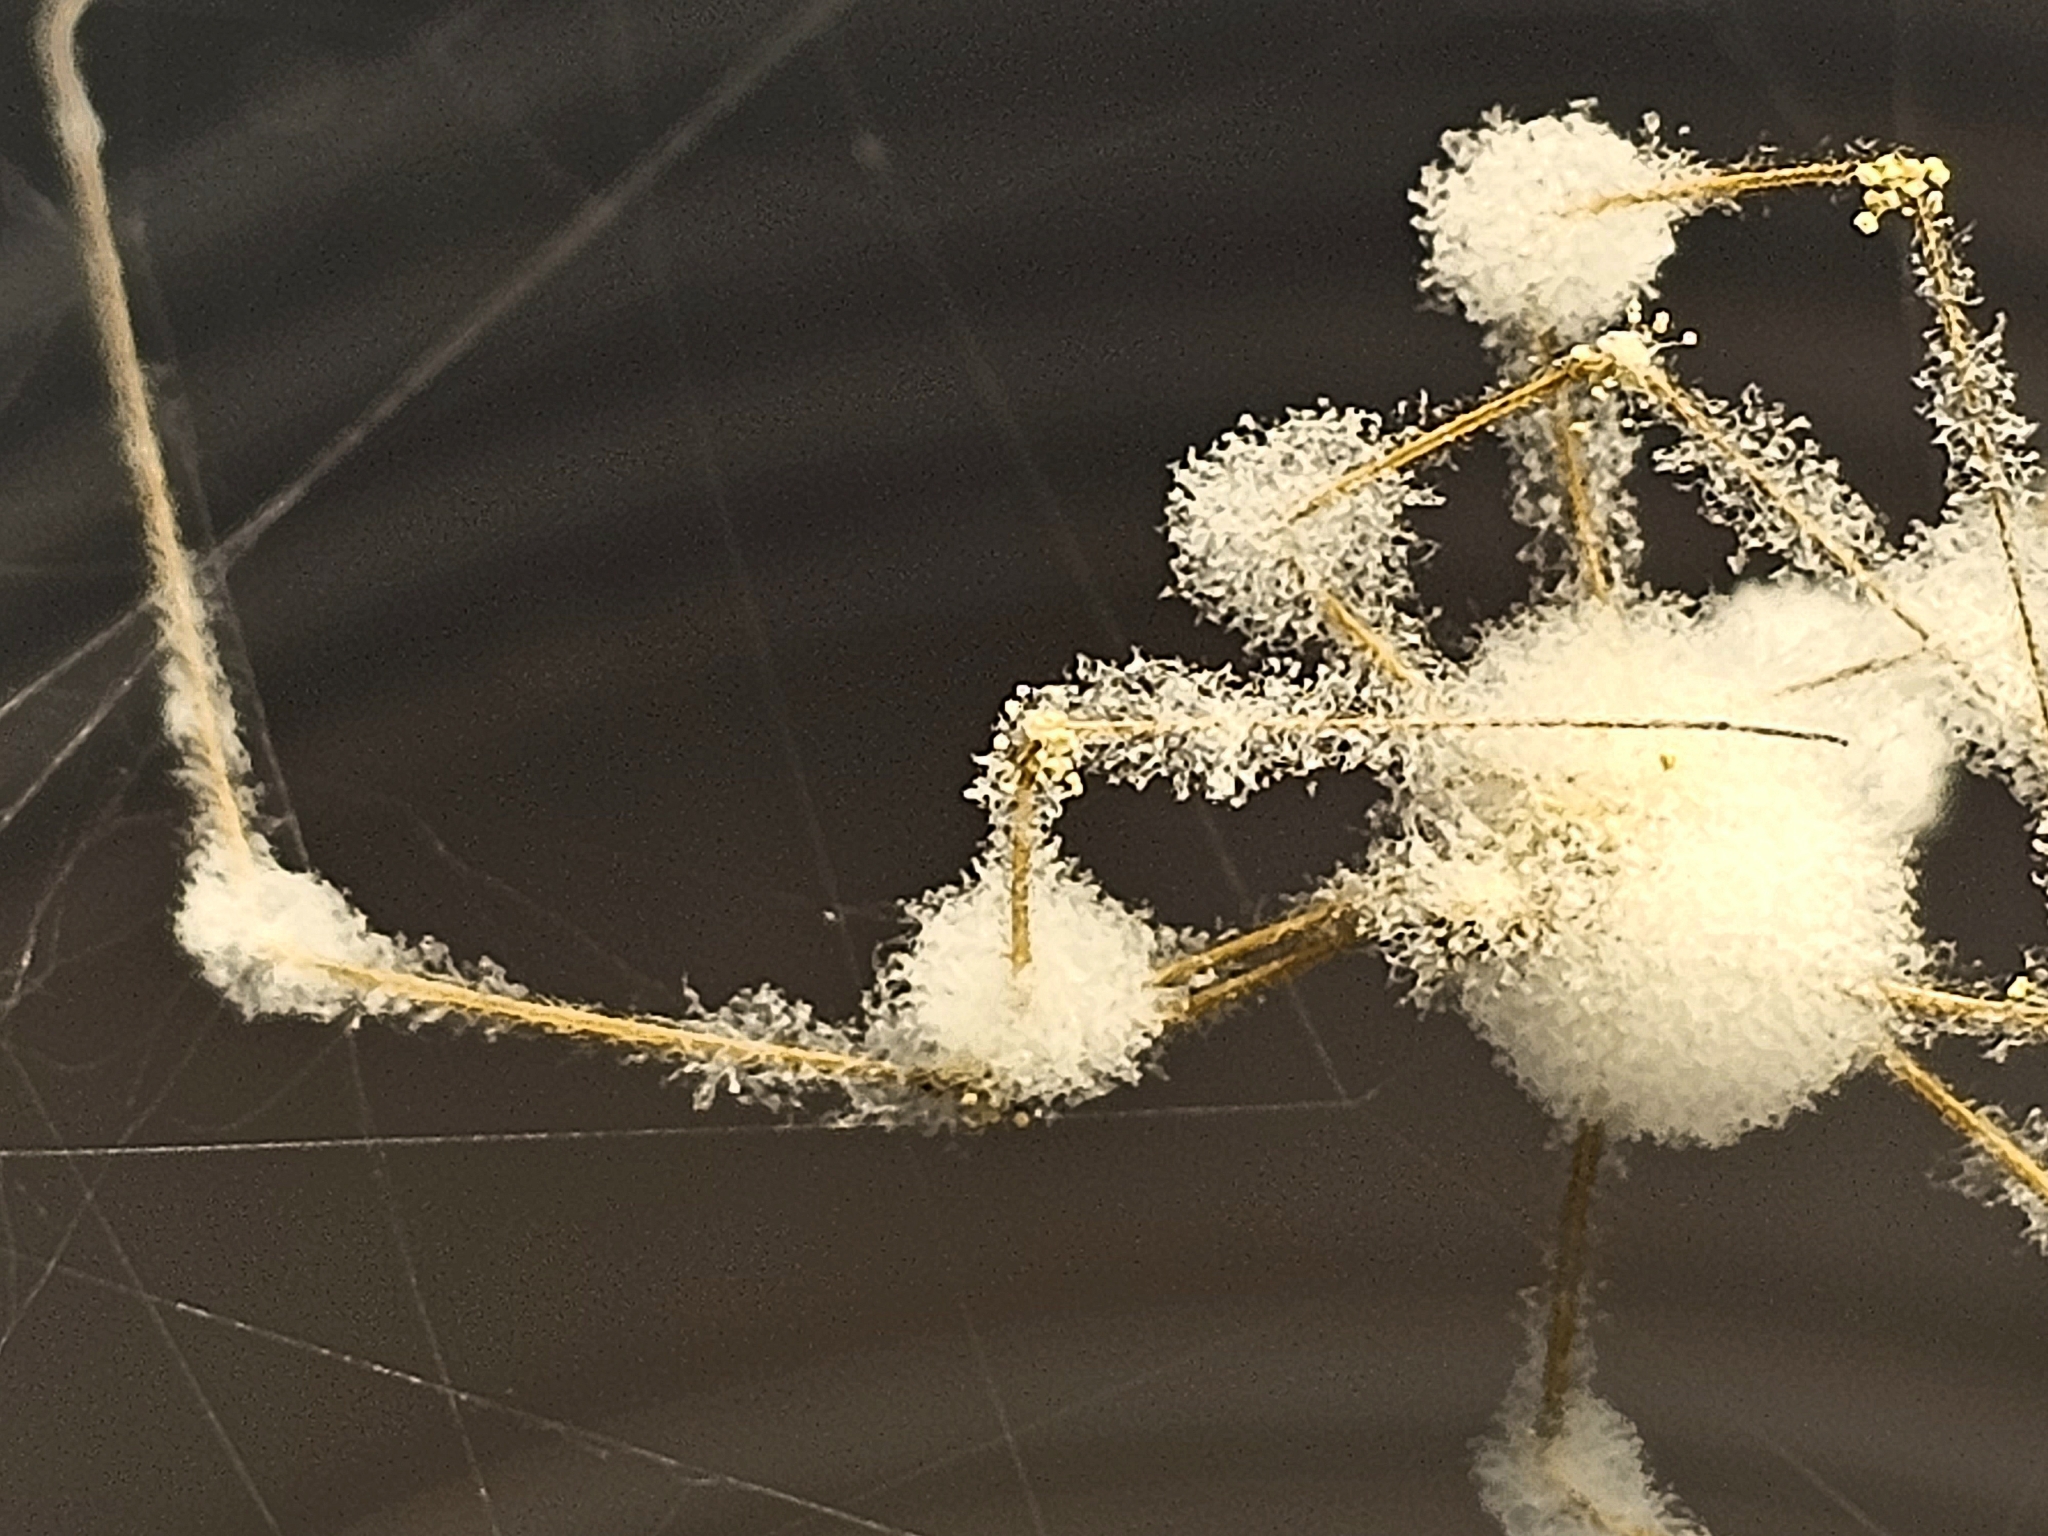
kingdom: Fungi
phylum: Ascomycota
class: Sordariomycetes
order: Hypocreales
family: Cordycipitaceae
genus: Lecanicillium
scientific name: Lecanicillium tenuipes
